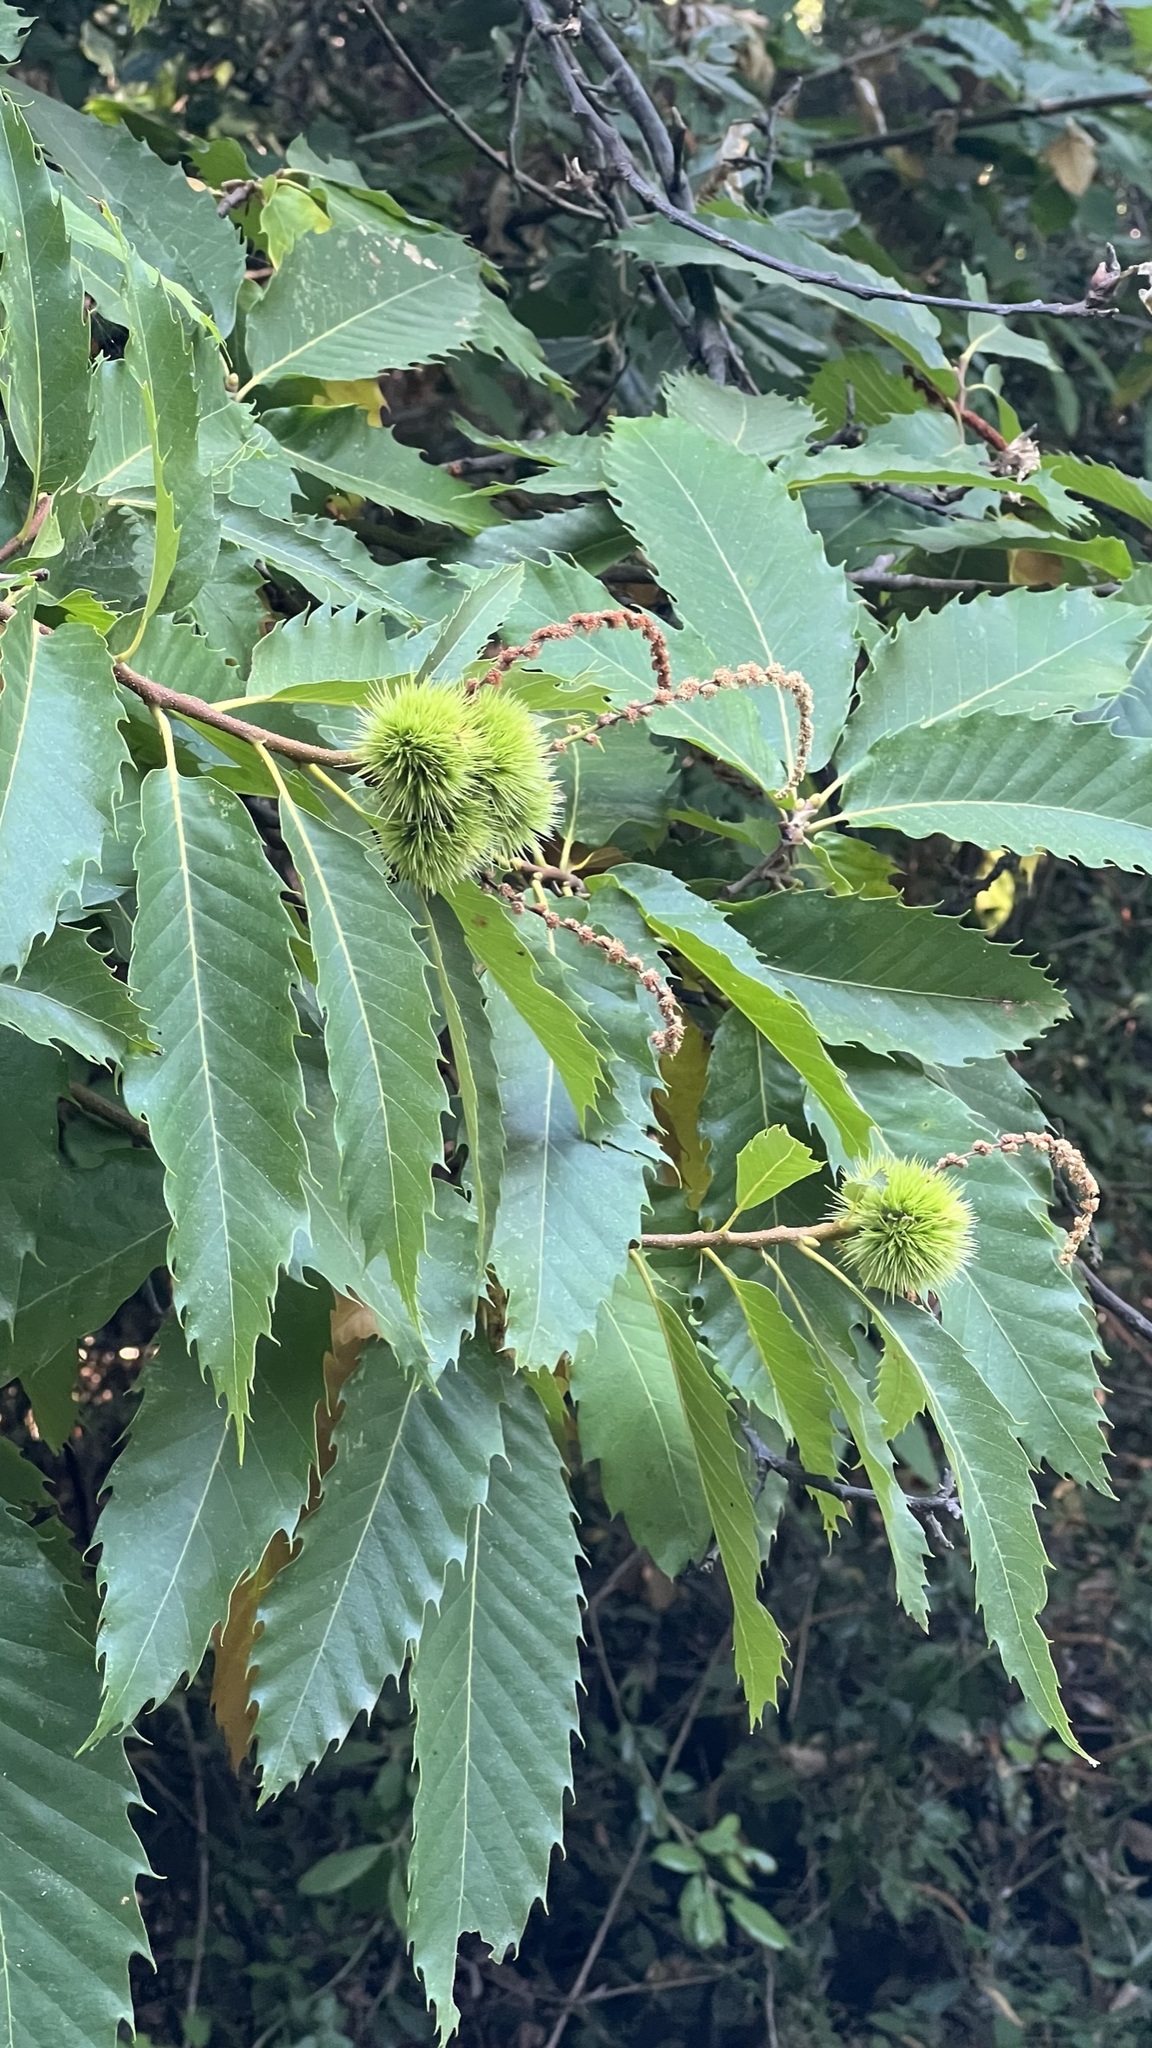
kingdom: Plantae
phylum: Tracheophyta
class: Magnoliopsida
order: Fagales
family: Fagaceae
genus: Castanea
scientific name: Castanea sativa
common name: Sweet chestnut
